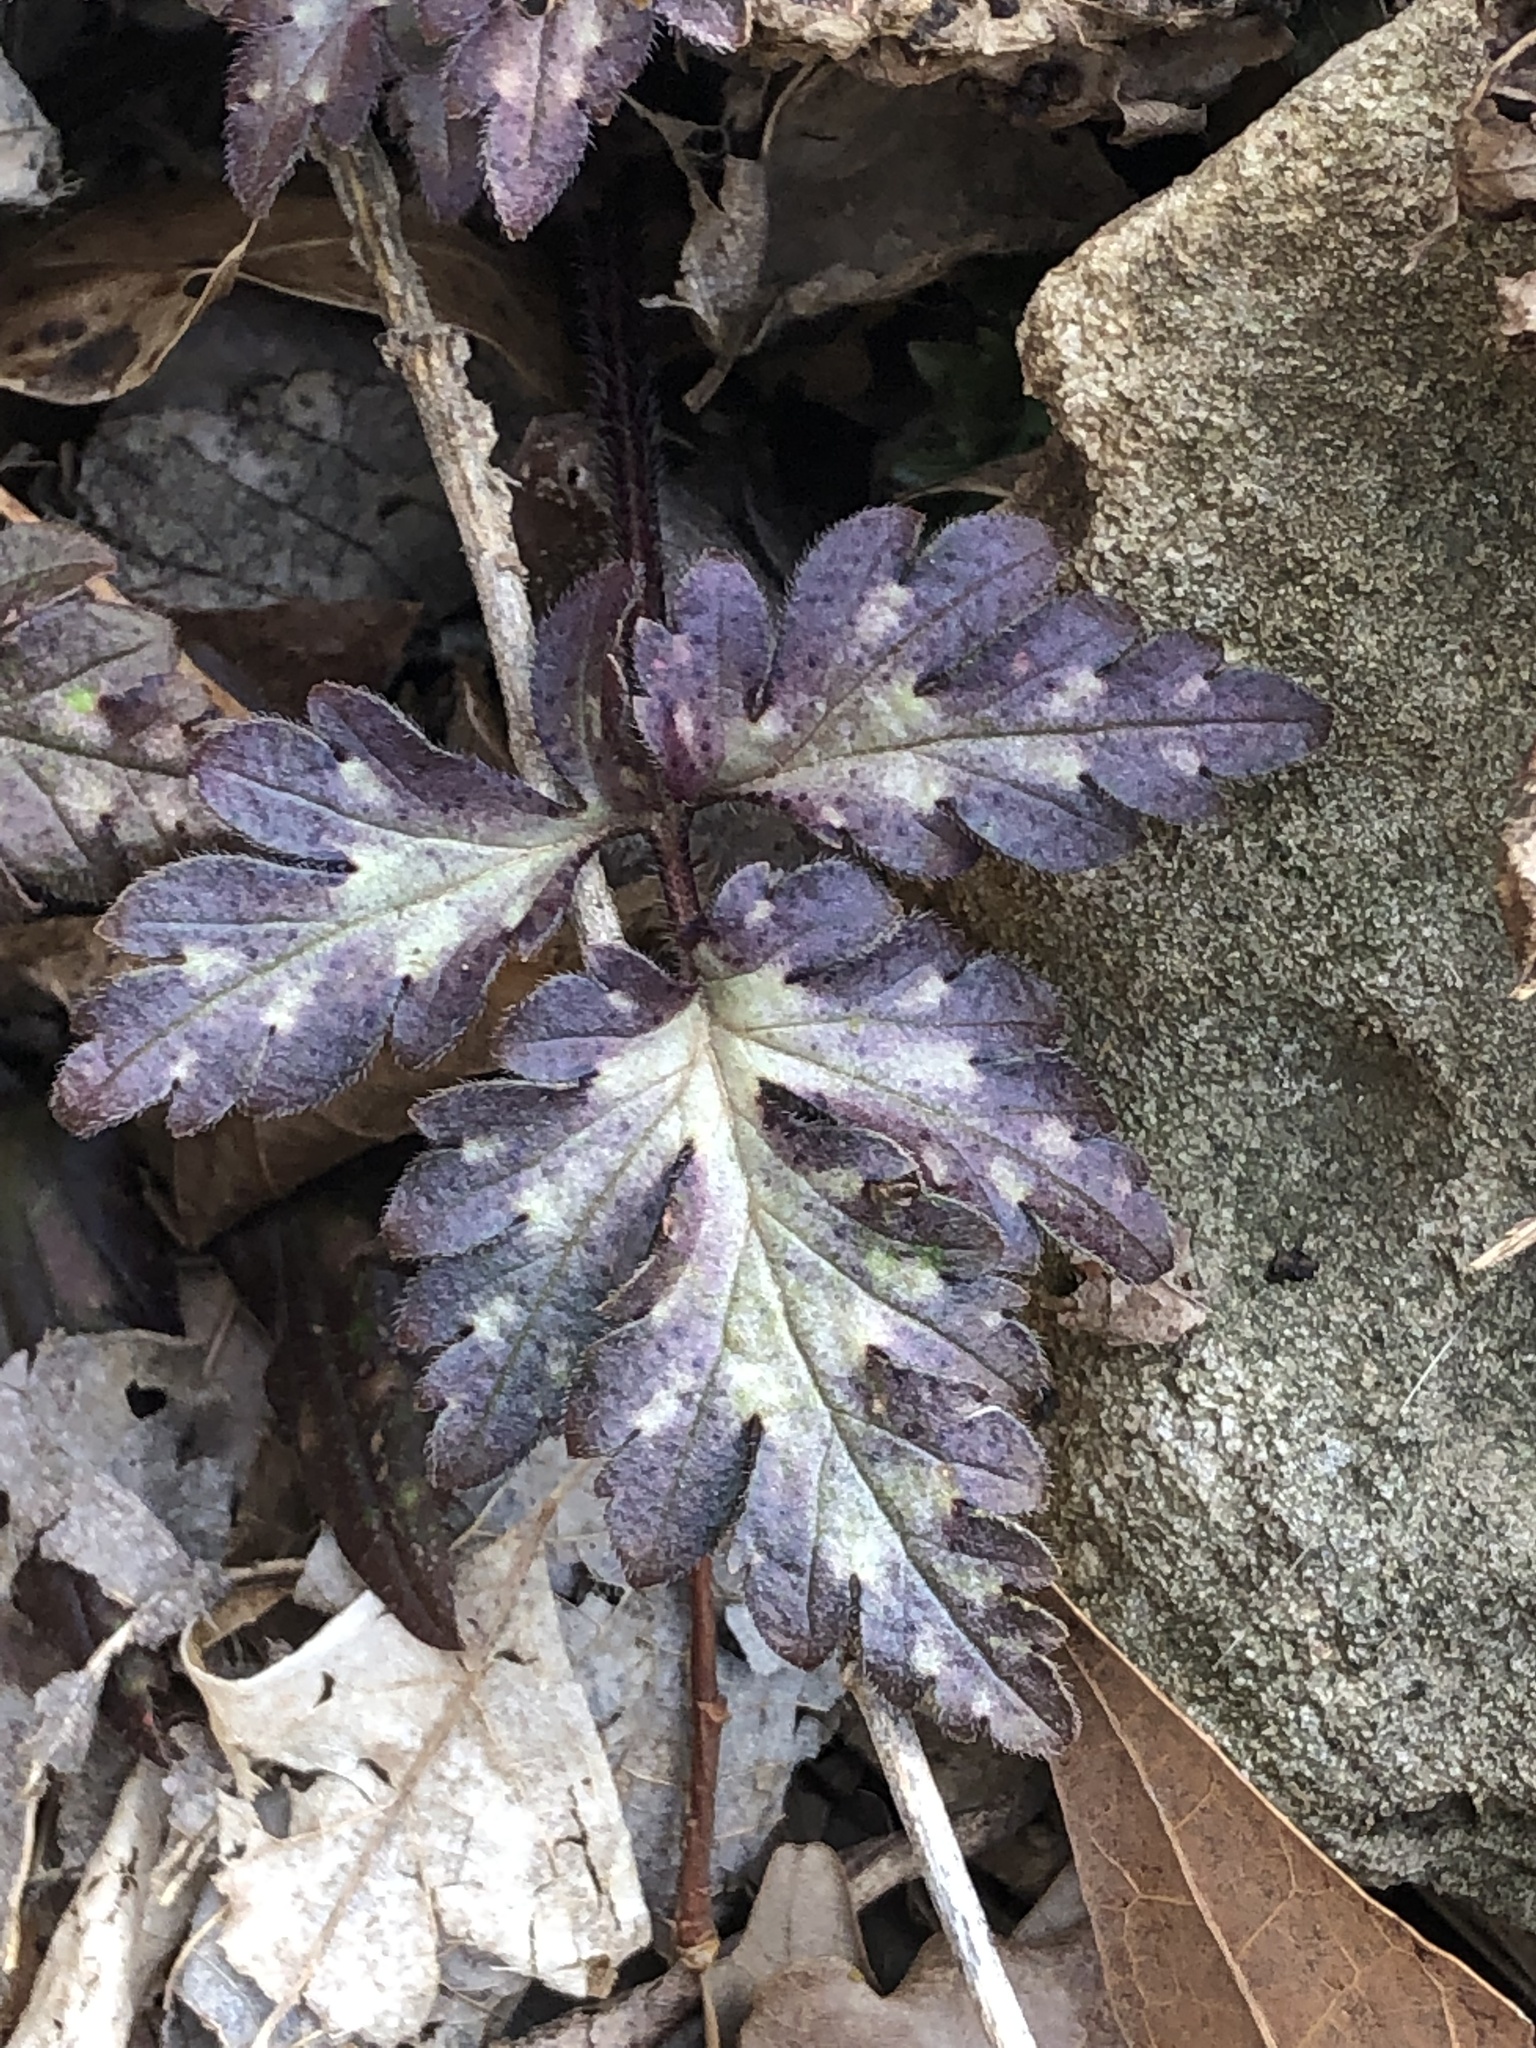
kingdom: Plantae
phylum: Tracheophyta
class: Magnoliopsida
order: Boraginales
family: Hydrophyllaceae
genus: Phacelia
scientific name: Phacelia bipinnatifida
